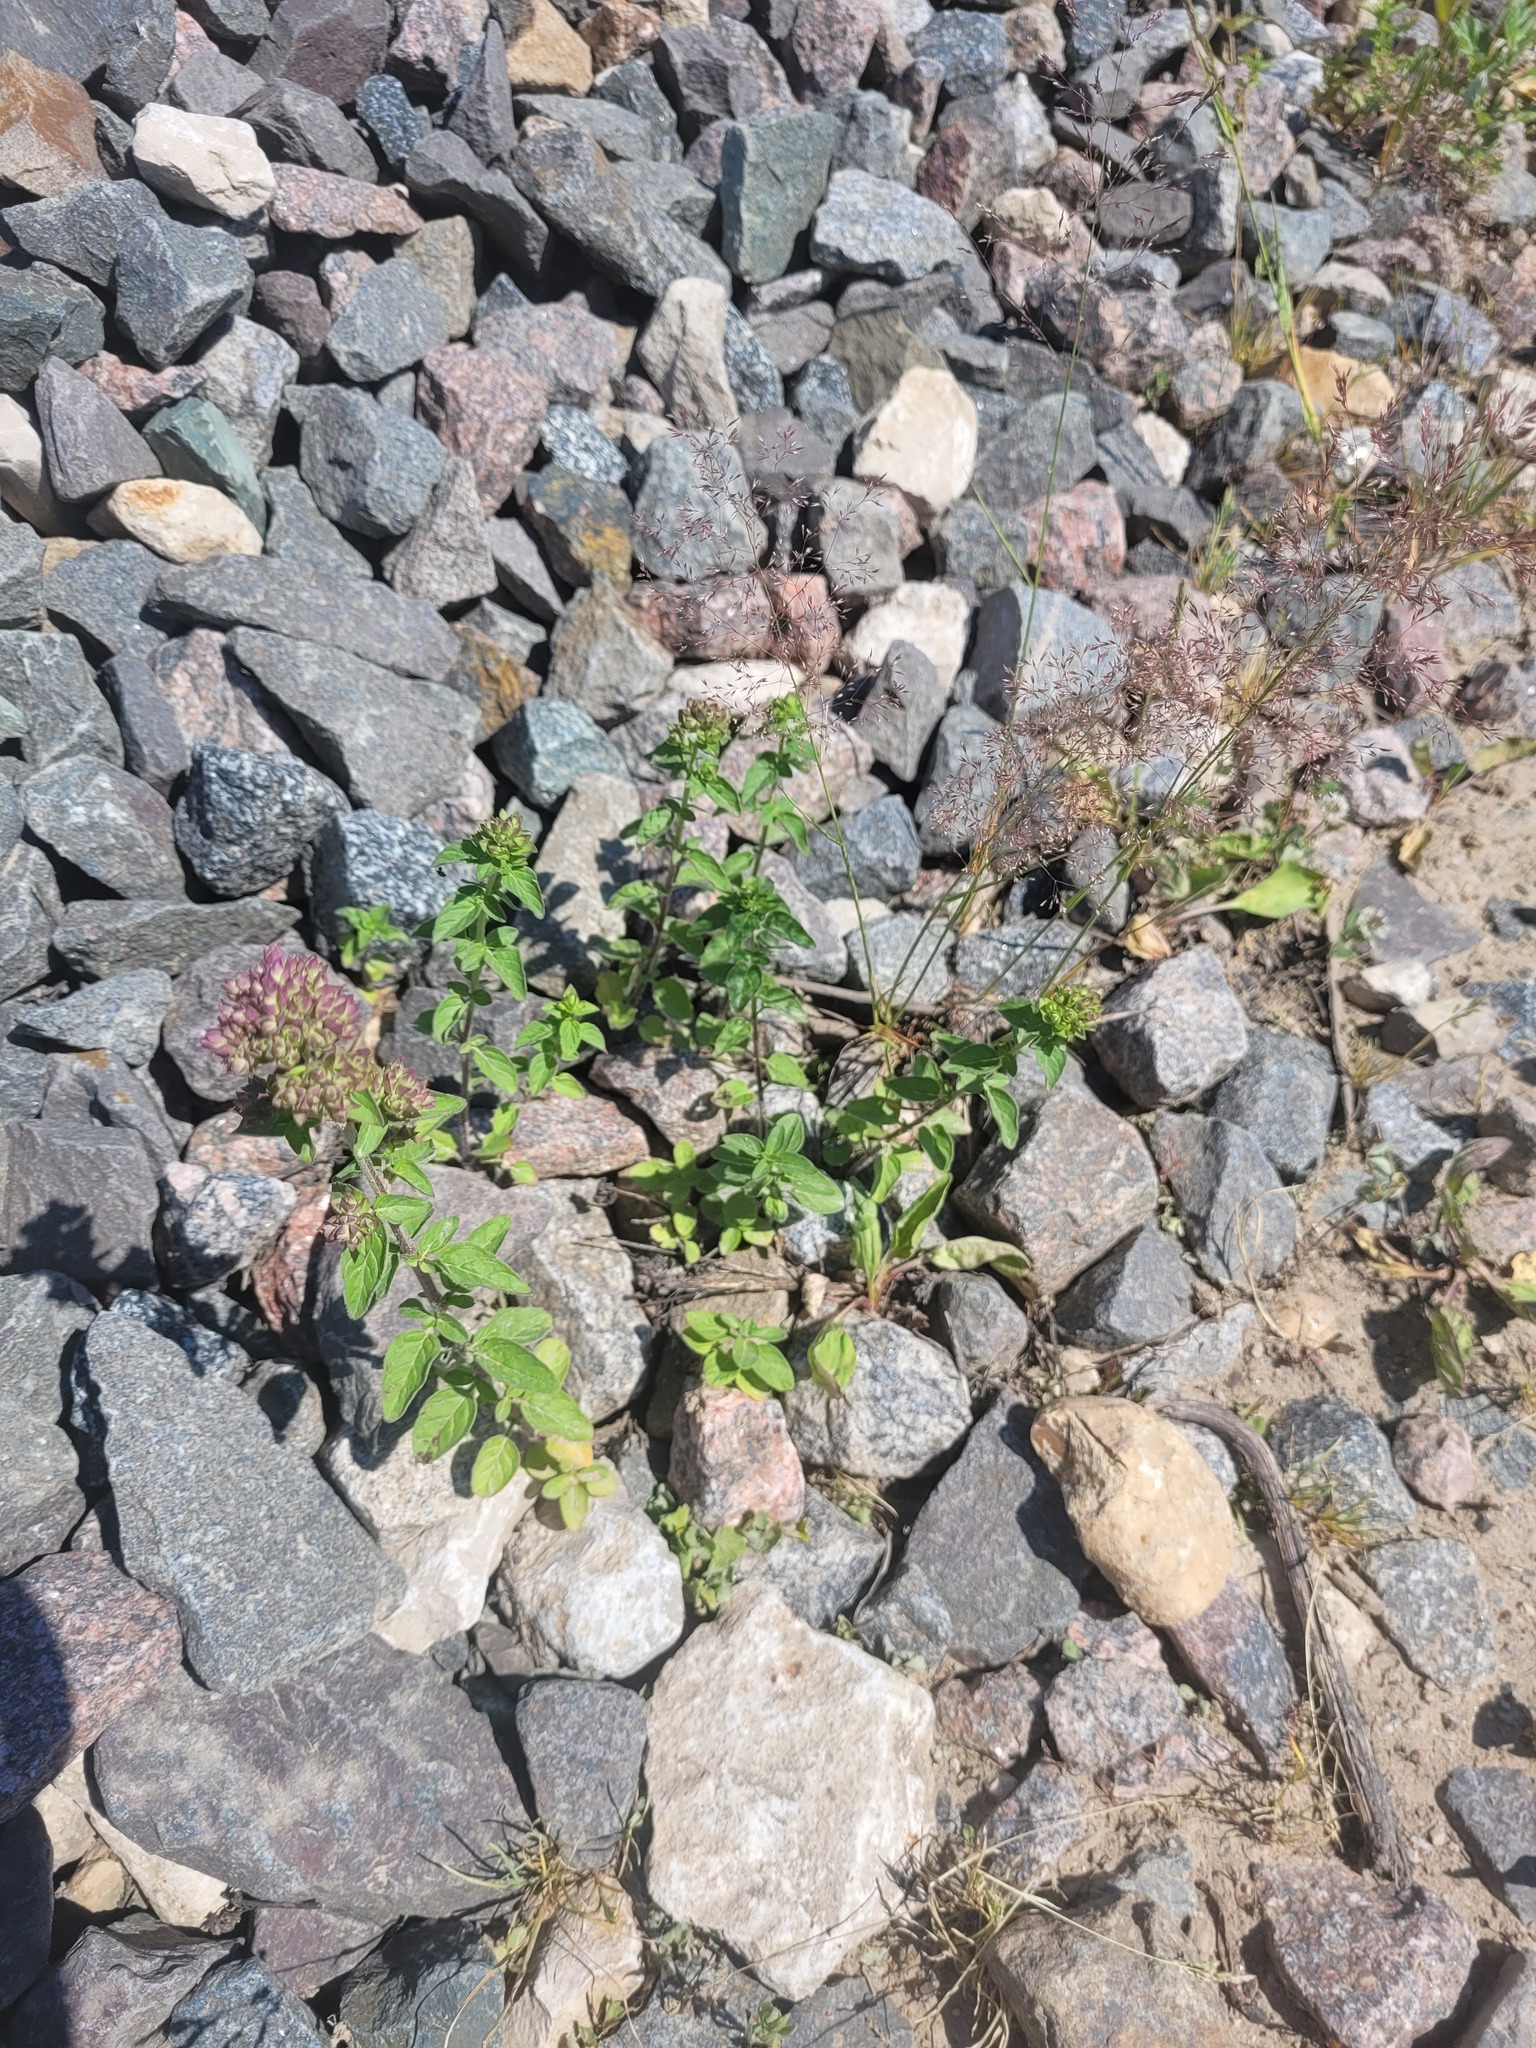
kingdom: Plantae
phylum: Tracheophyta
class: Magnoliopsida
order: Lamiales
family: Lamiaceae
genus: Origanum
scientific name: Origanum vulgare
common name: Wild marjoram
